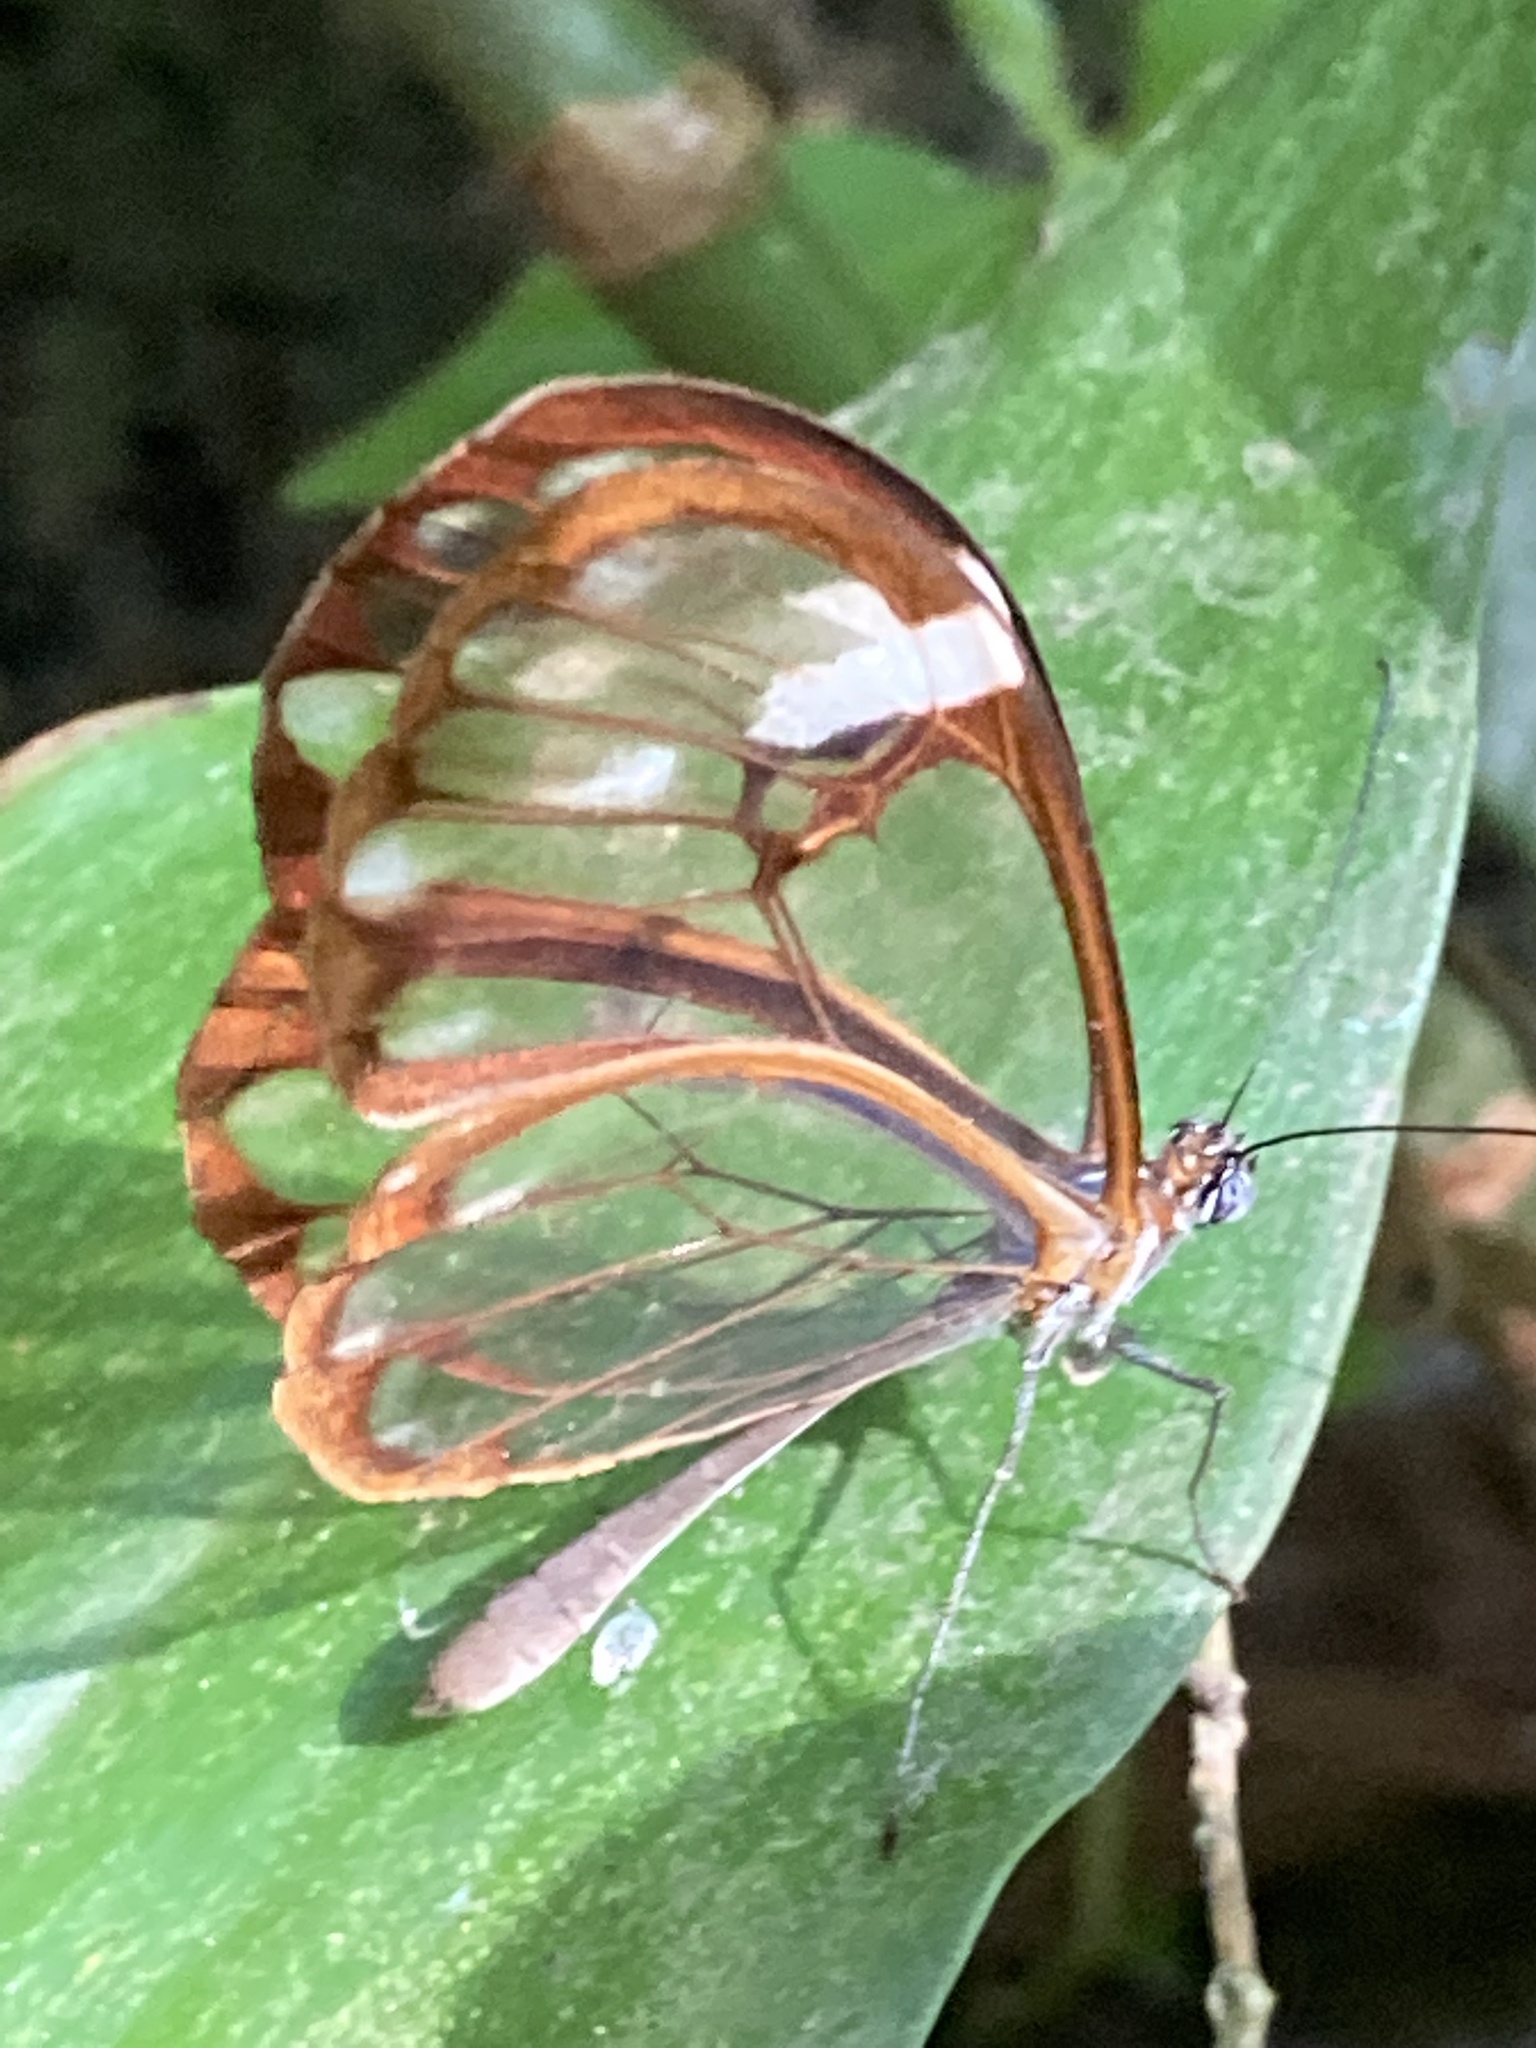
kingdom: Animalia
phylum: Arthropoda
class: Insecta
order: Lepidoptera
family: Nymphalidae
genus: Greta
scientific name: Greta annette
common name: White-spotted clearwing
